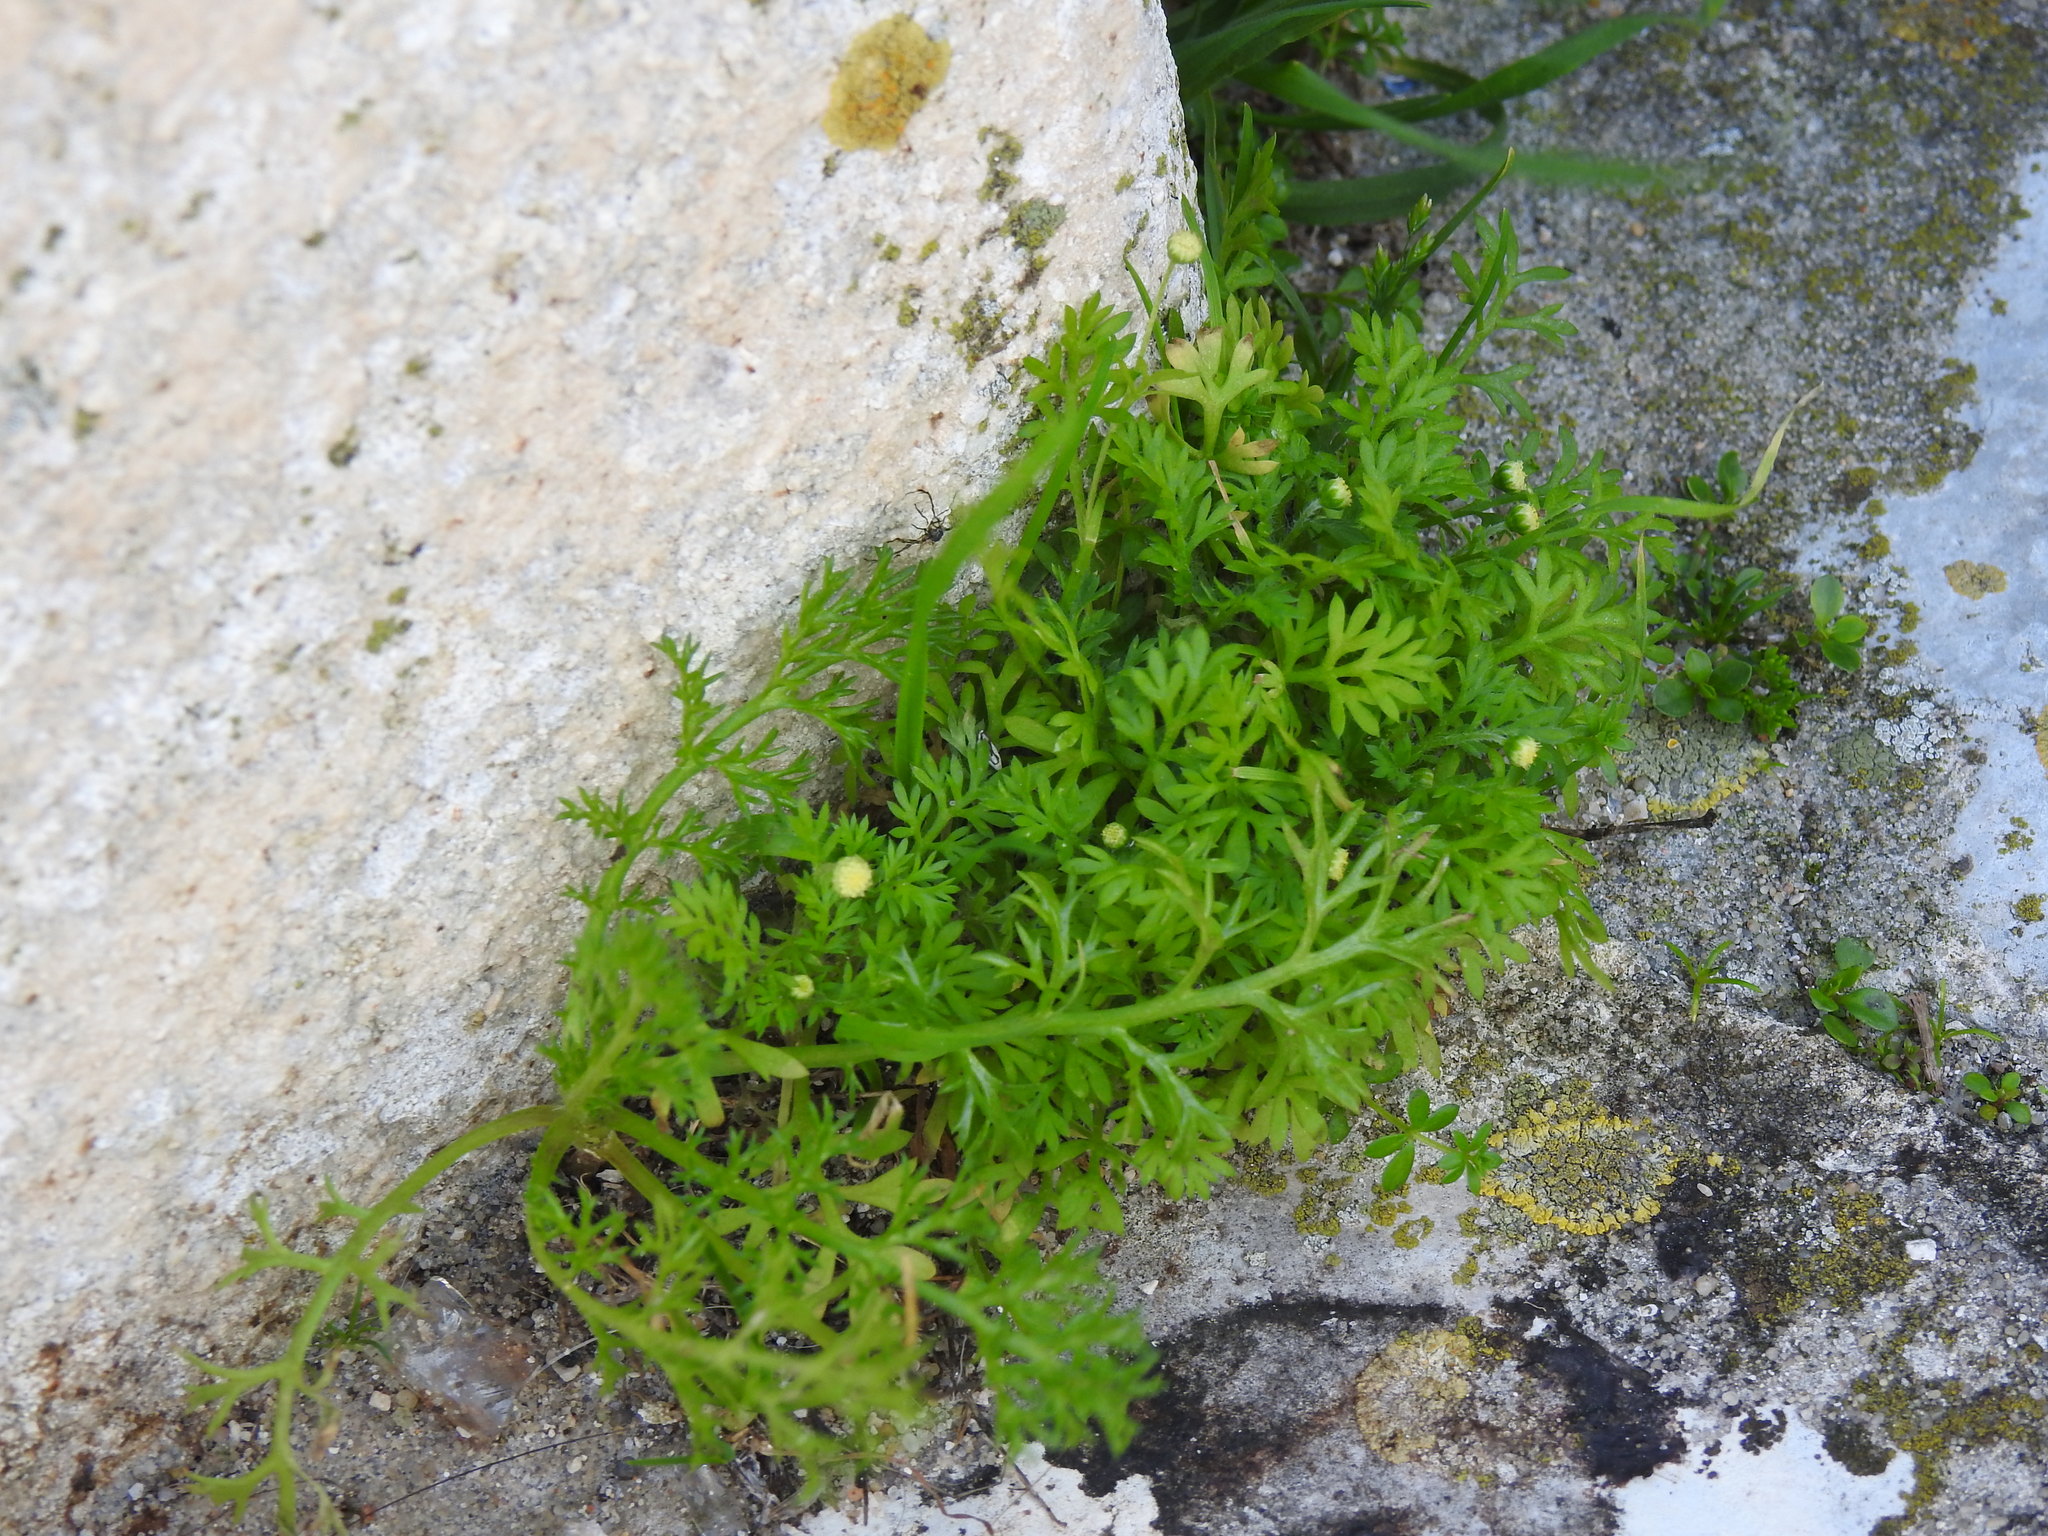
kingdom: Plantae
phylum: Tracheophyta
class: Magnoliopsida
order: Asterales
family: Asteraceae
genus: Cotula
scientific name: Cotula australis
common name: Australian waterbuttons
